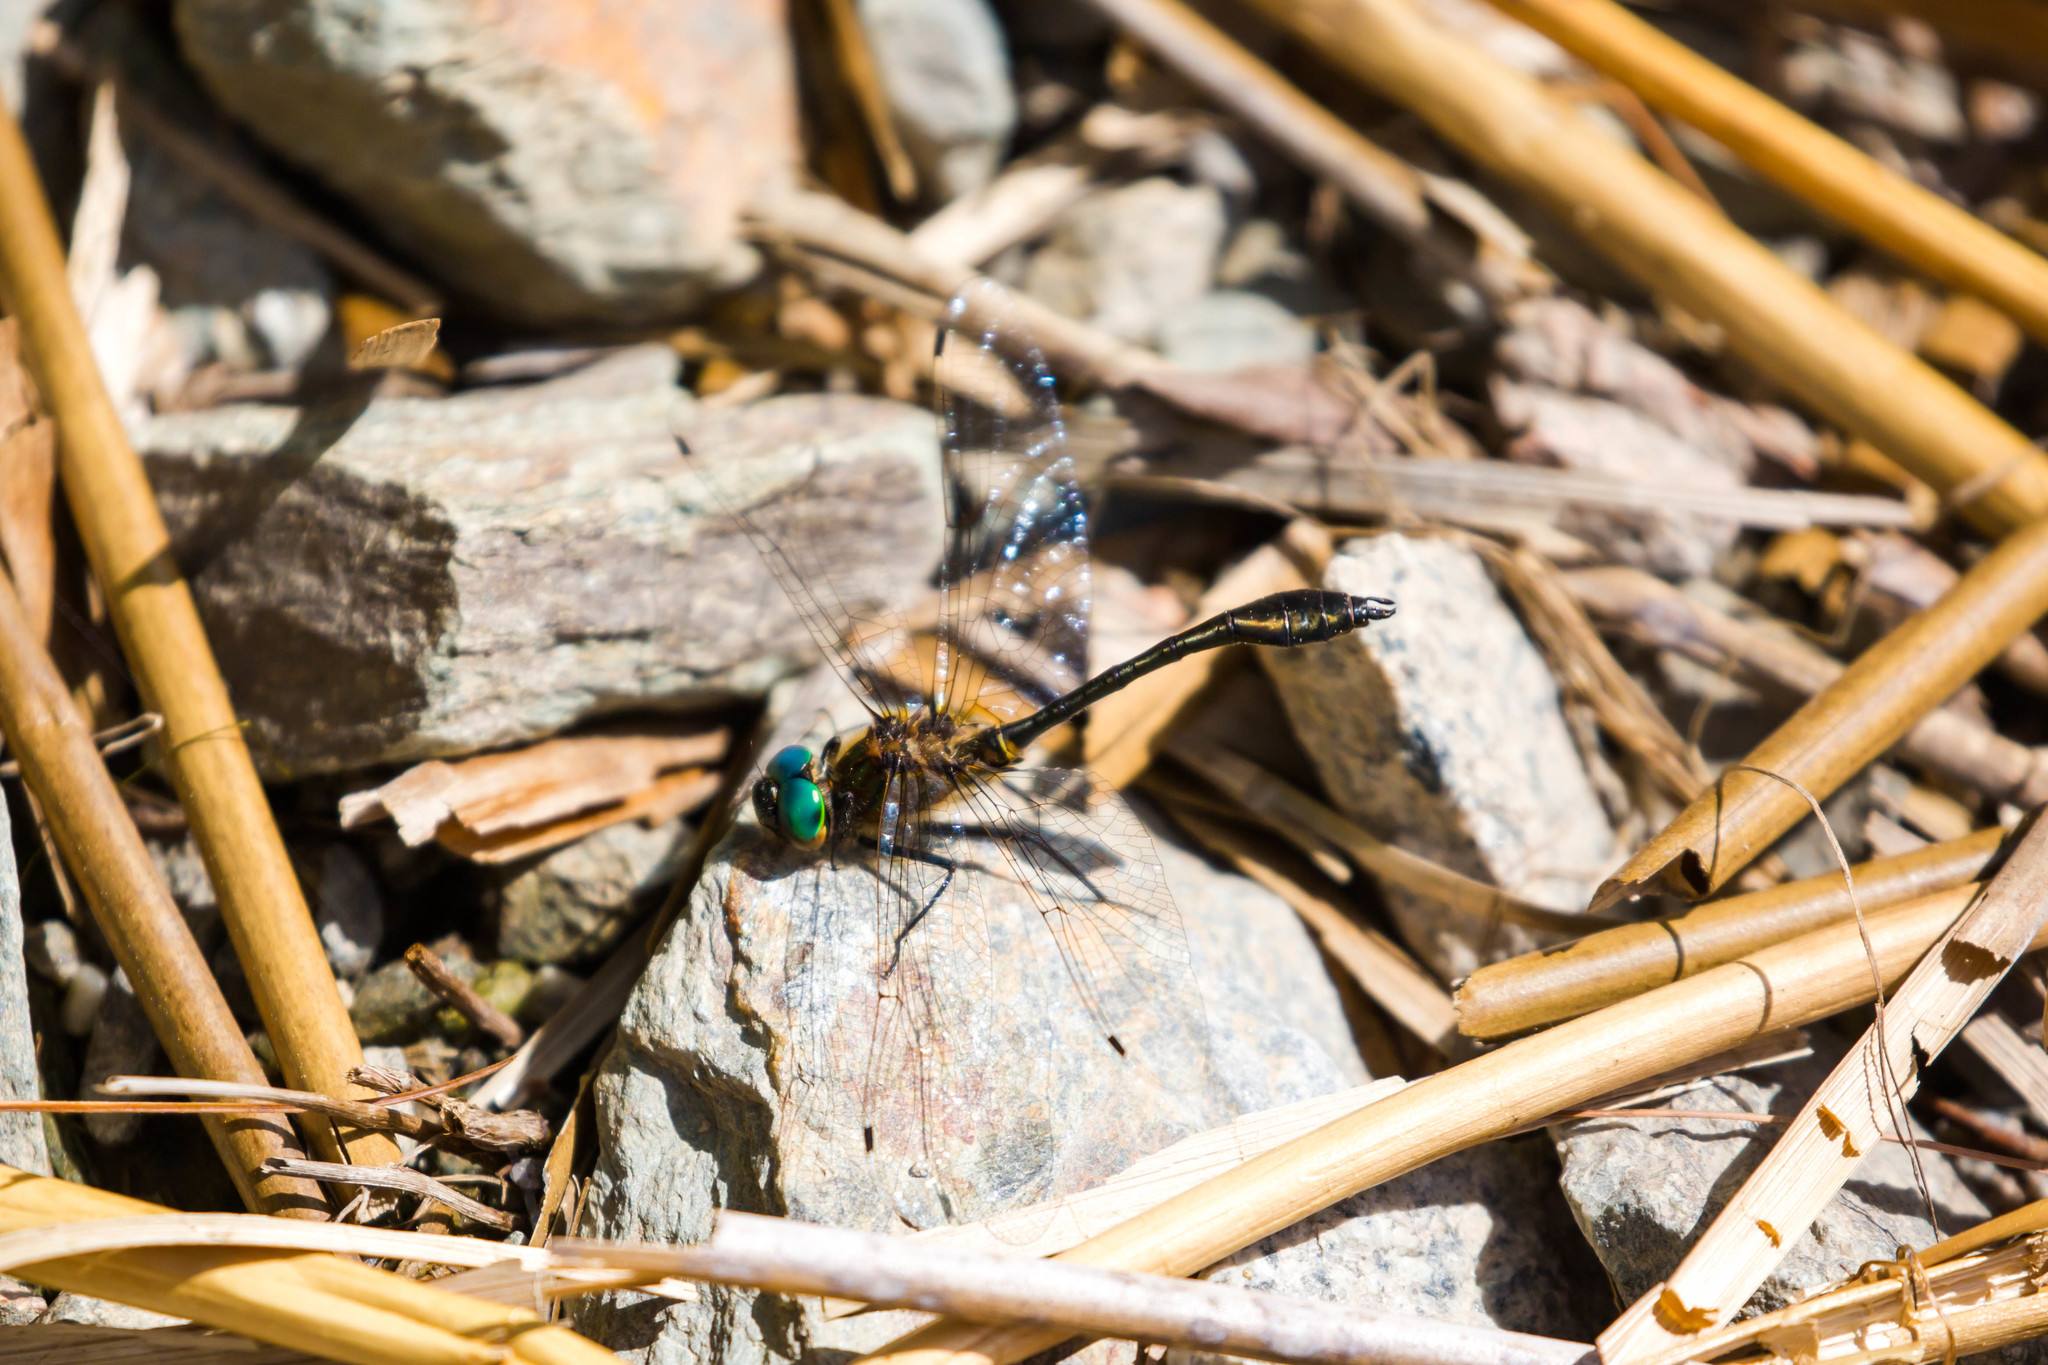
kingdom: Animalia
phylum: Arthropoda
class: Insecta
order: Odonata
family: Corduliidae
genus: Dorocordulia
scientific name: Dorocordulia libera
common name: Racket-tailed emerald
